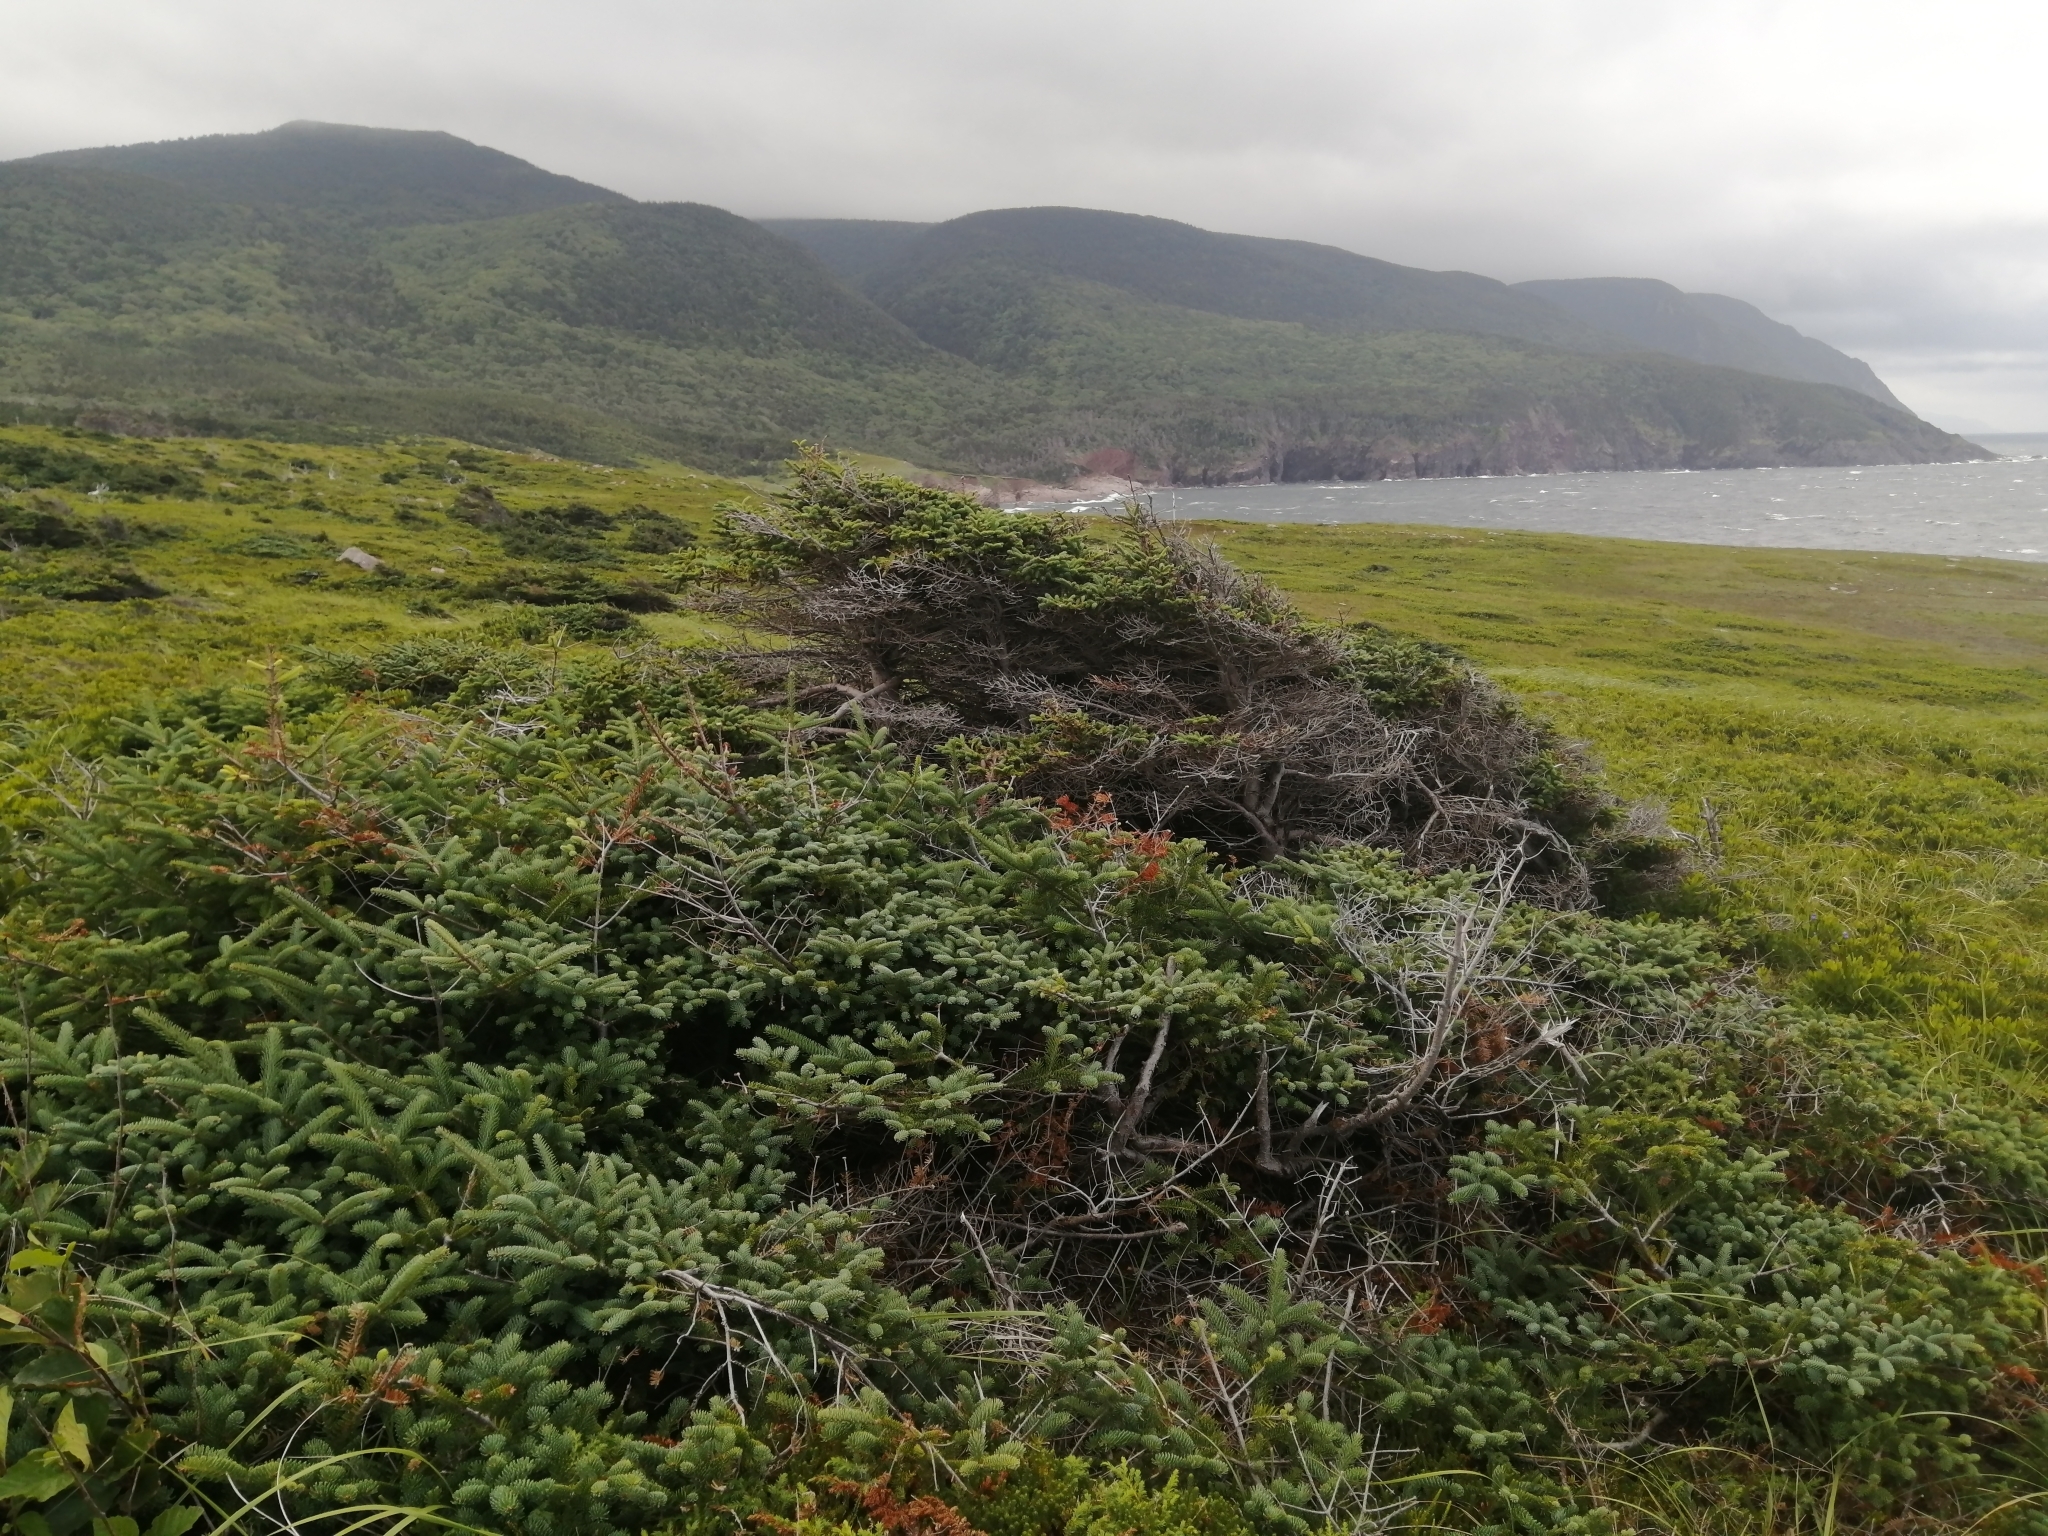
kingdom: Plantae
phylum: Tracheophyta
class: Pinopsida
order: Pinales
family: Pinaceae
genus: Picea
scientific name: Picea glauca
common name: White spruce
